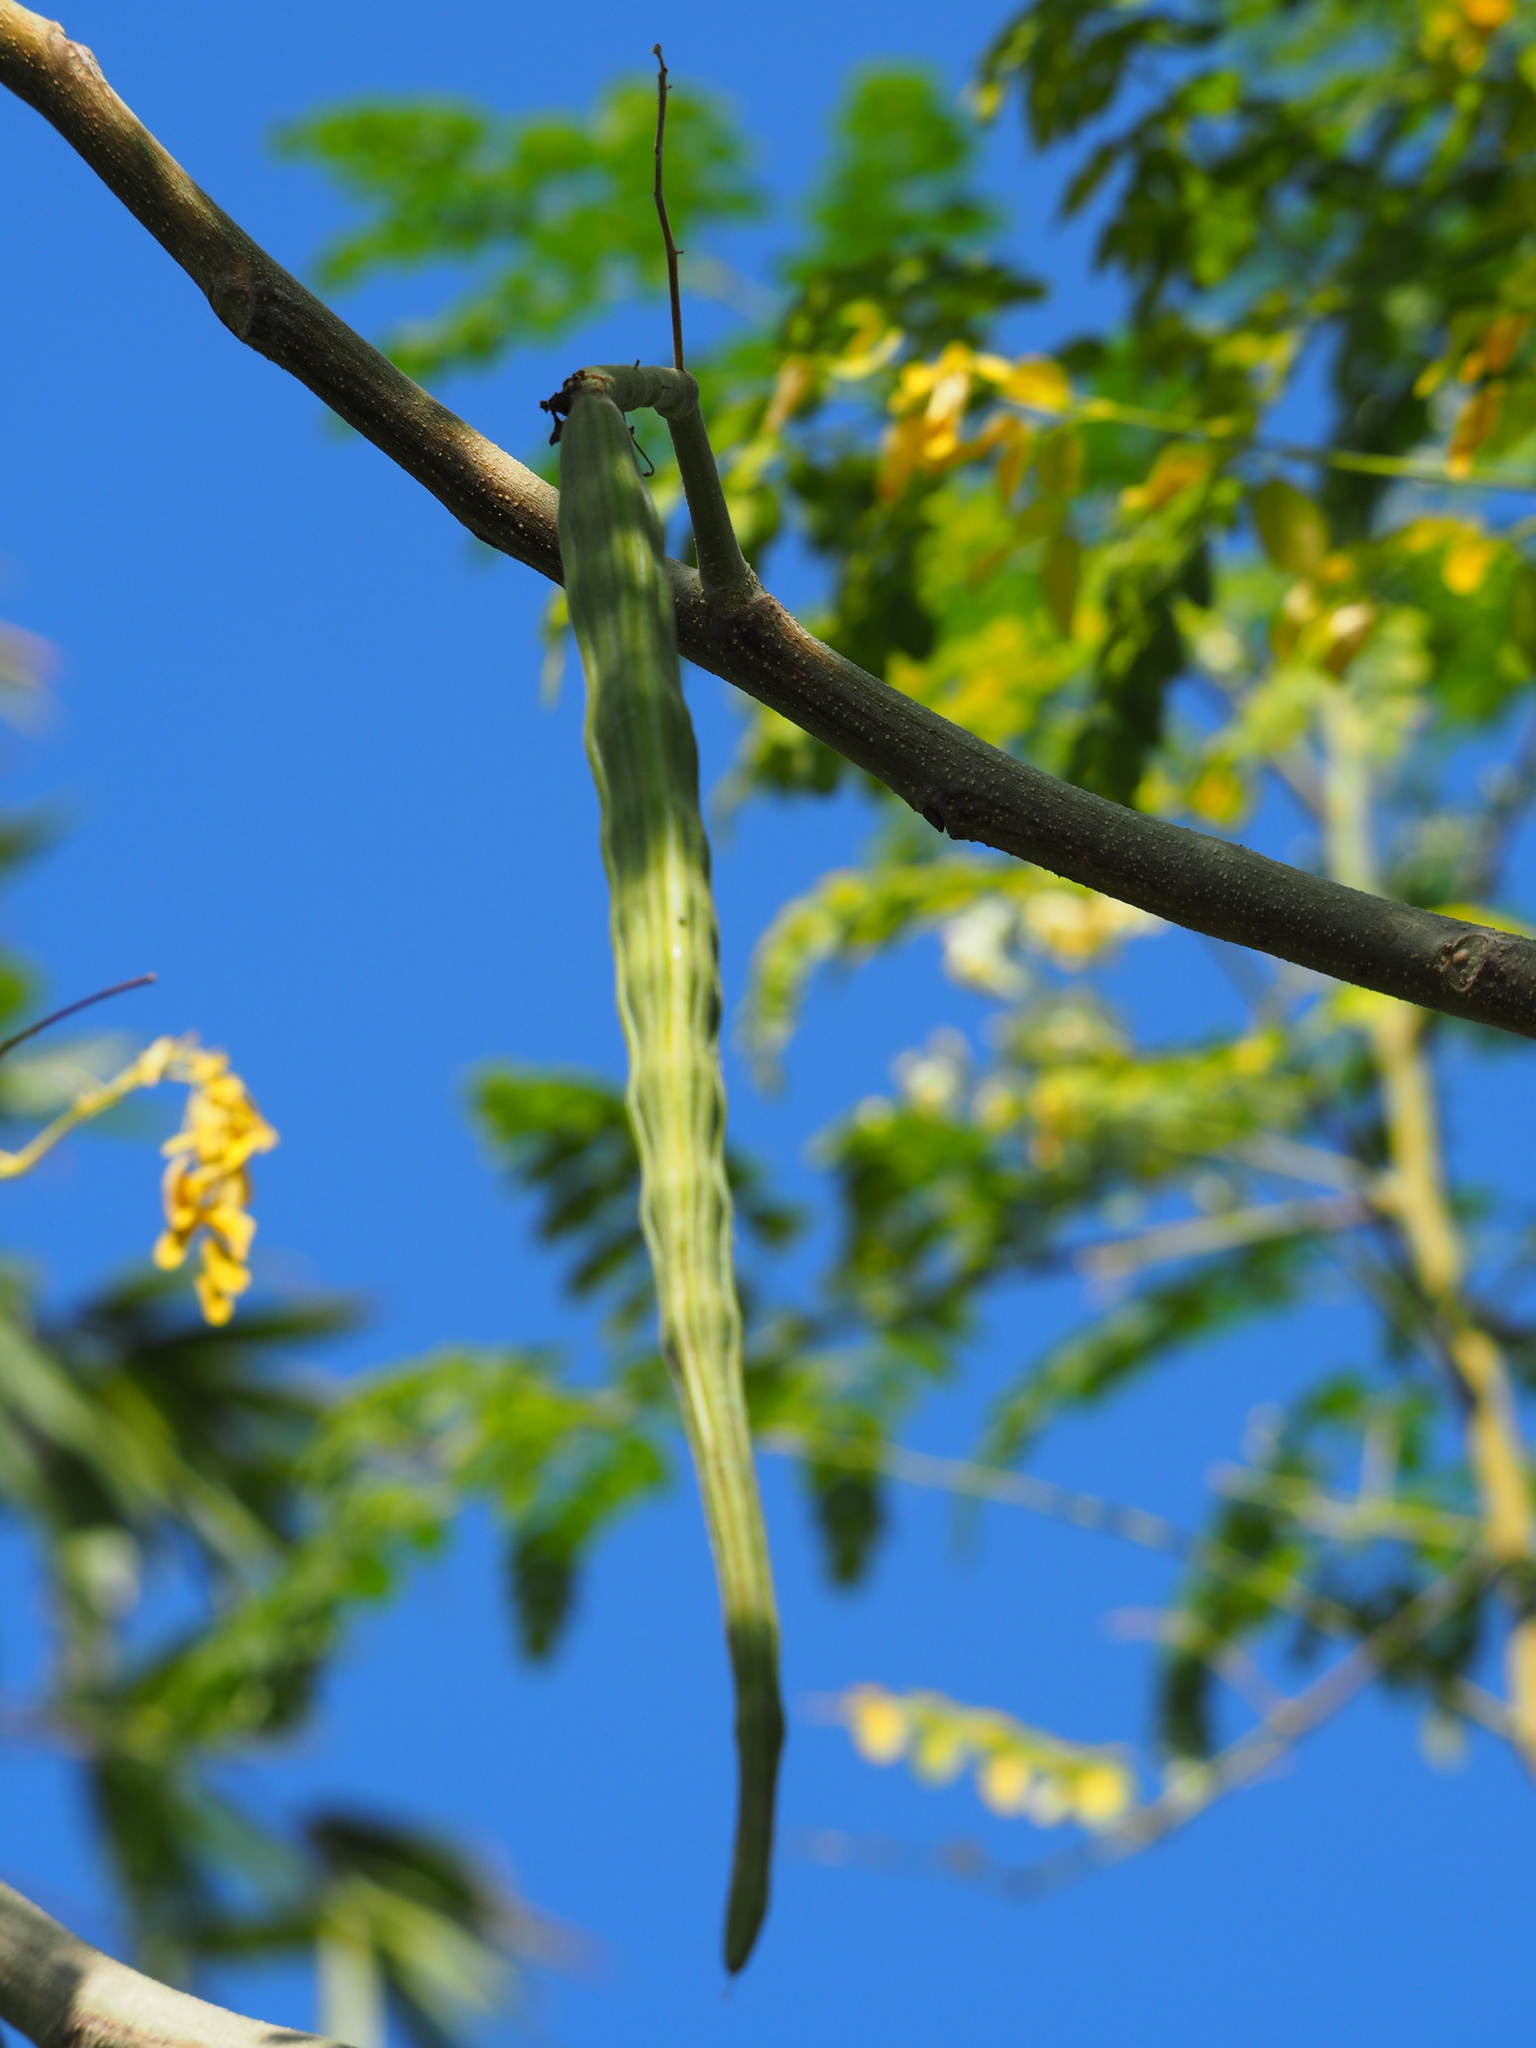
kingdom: Plantae
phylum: Tracheophyta
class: Magnoliopsida
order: Brassicales
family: Moringaceae
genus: Moringa
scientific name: Moringa oleifera
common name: Horseradish-tree
